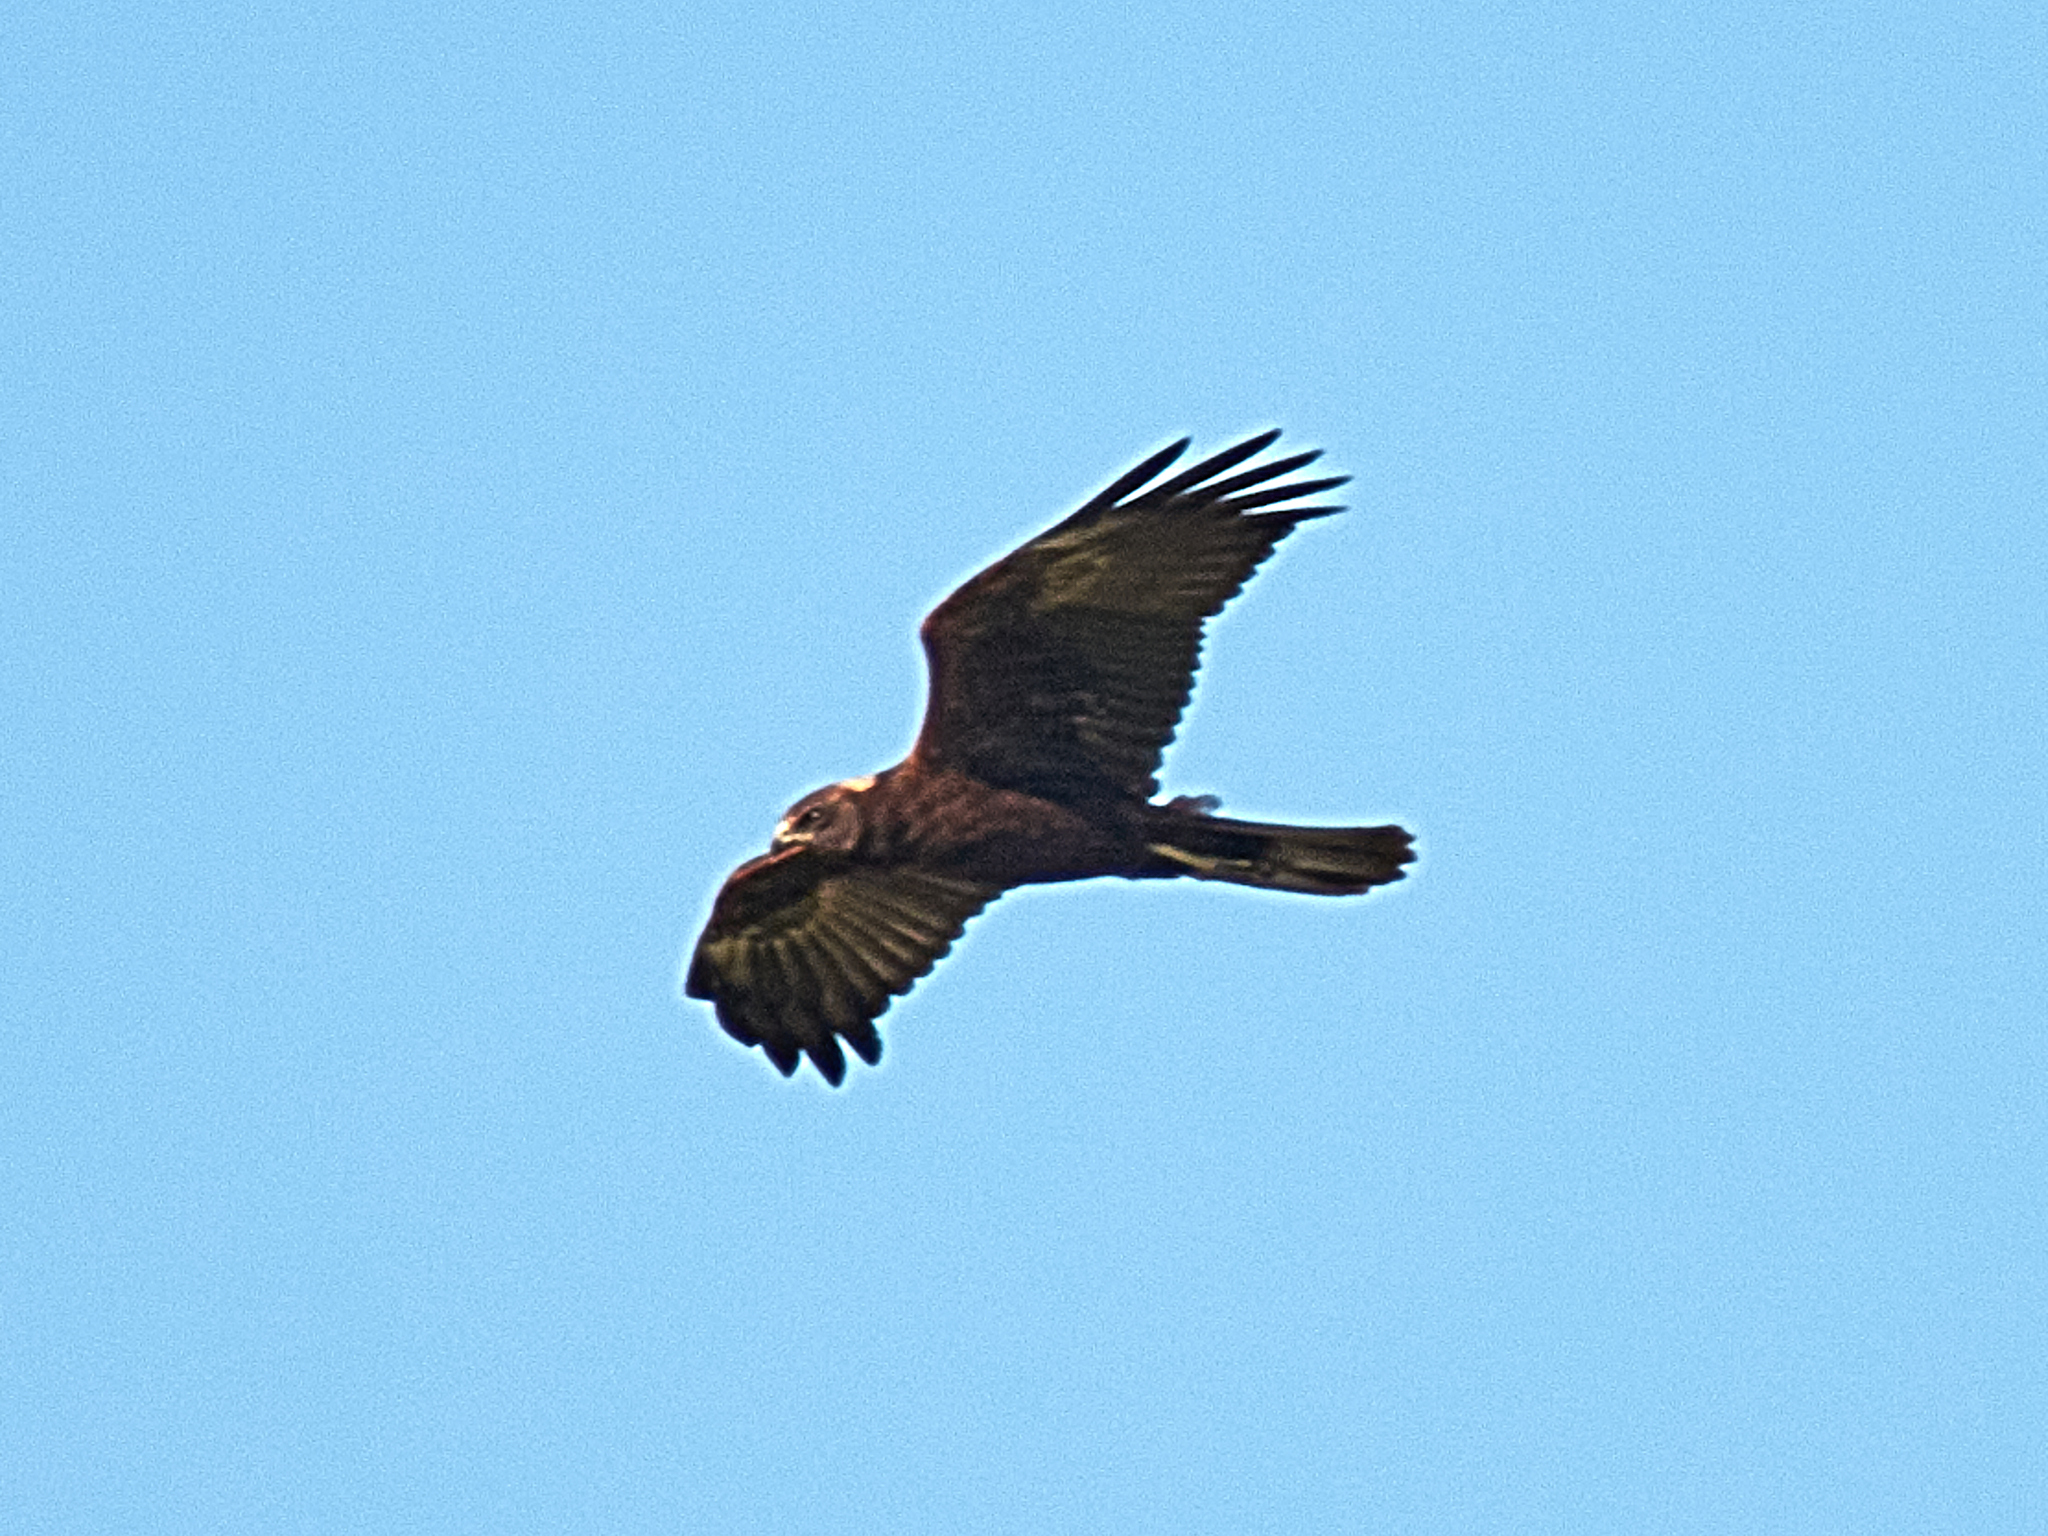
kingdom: Animalia
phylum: Chordata
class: Aves
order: Accipitriformes
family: Accipitridae
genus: Circus
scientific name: Circus aeruginosus
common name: Western marsh harrier
